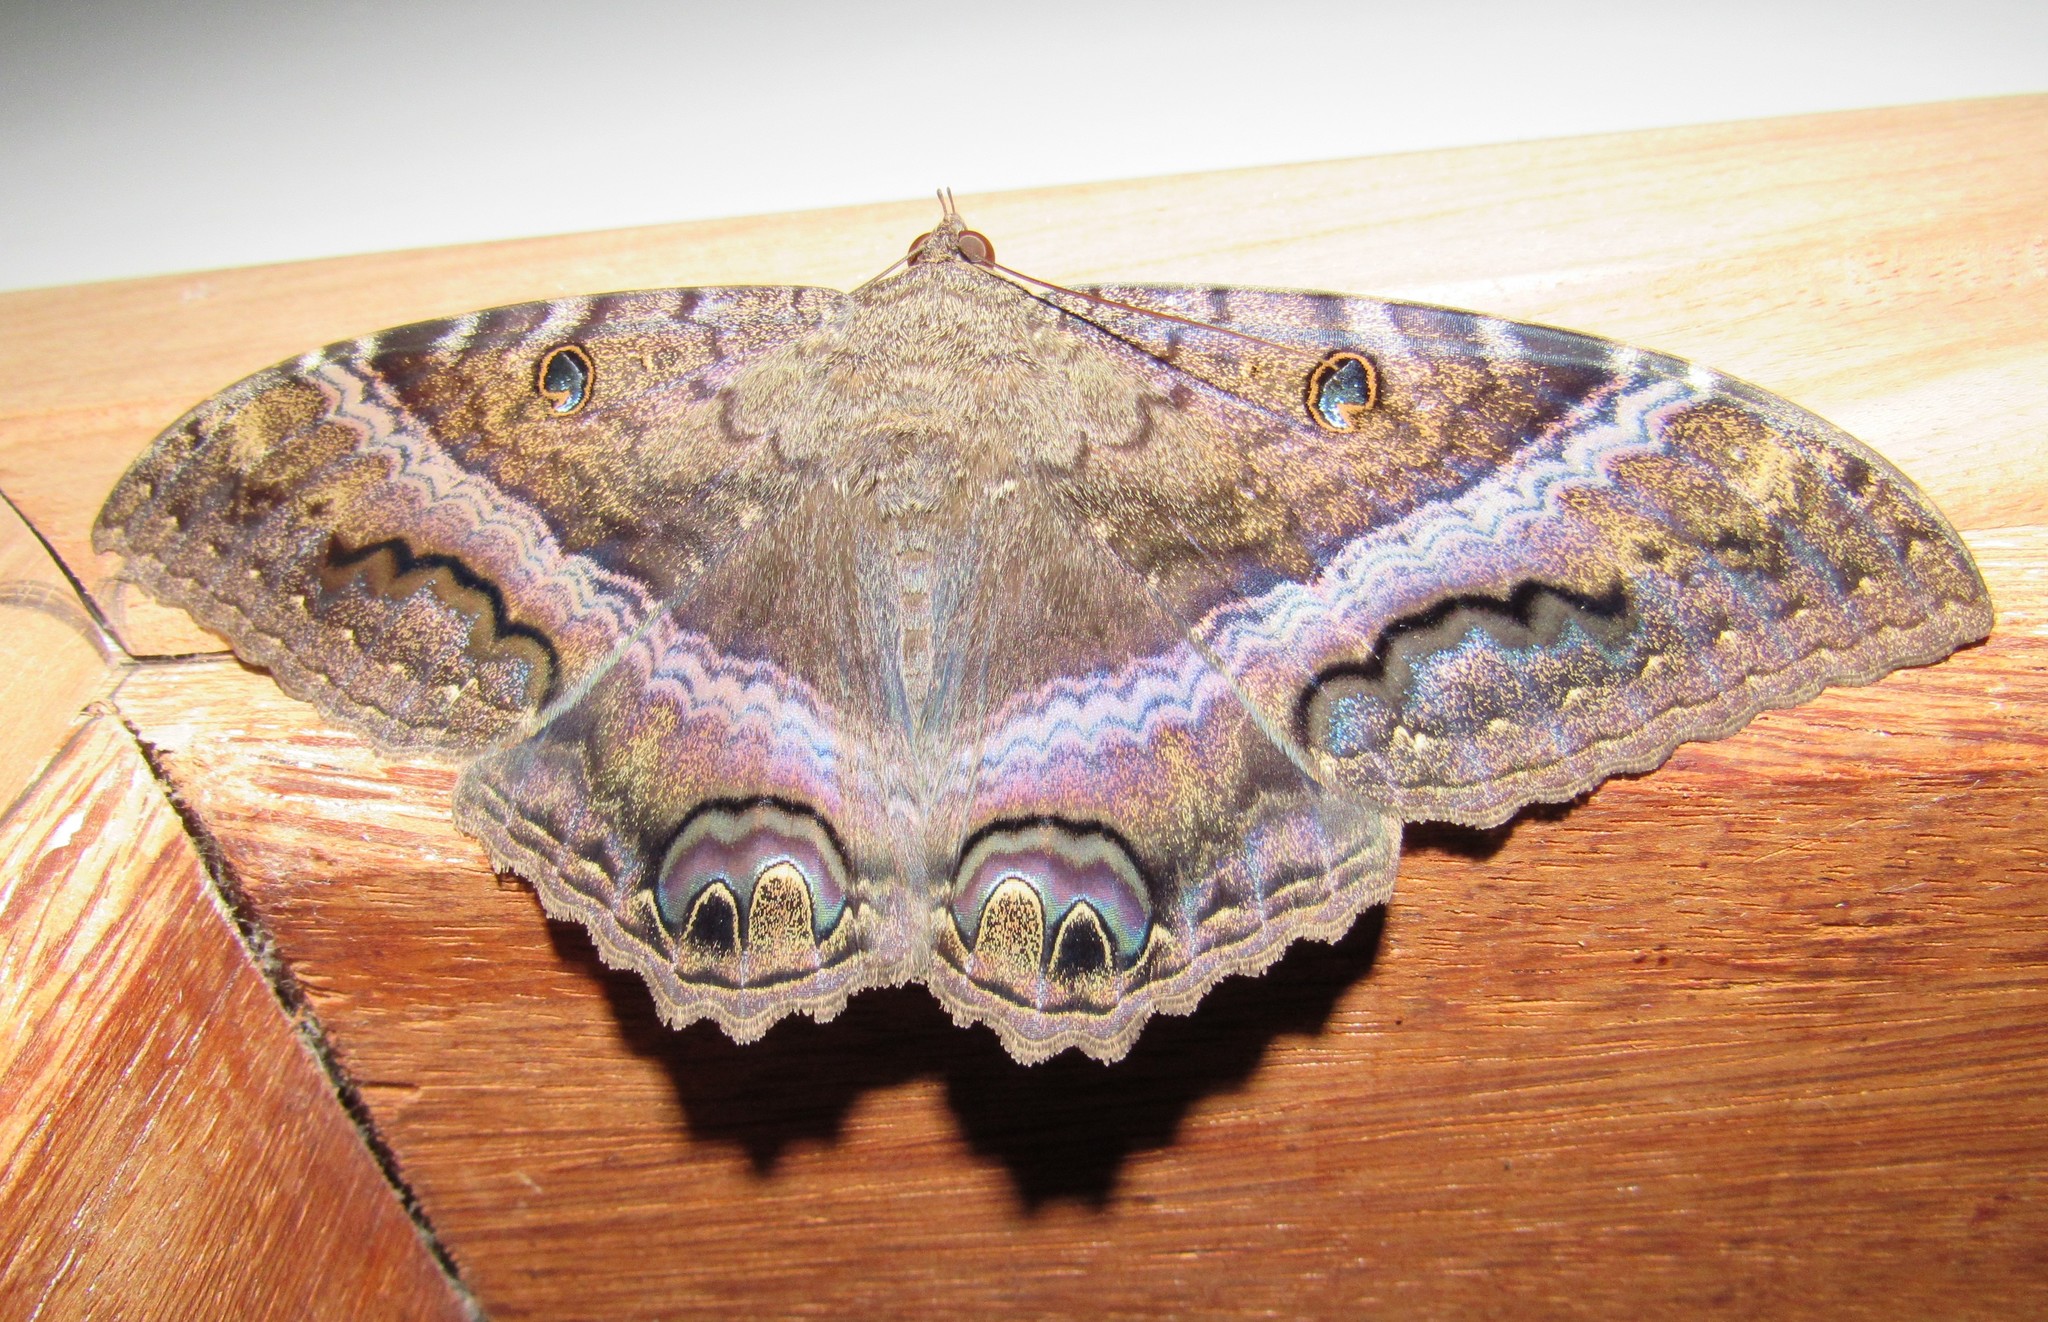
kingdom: Animalia
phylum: Arthropoda
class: Insecta
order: Lepidoptera
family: Erebidae
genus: Ascalapha
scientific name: Ascalapha odorata
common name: Black witch
